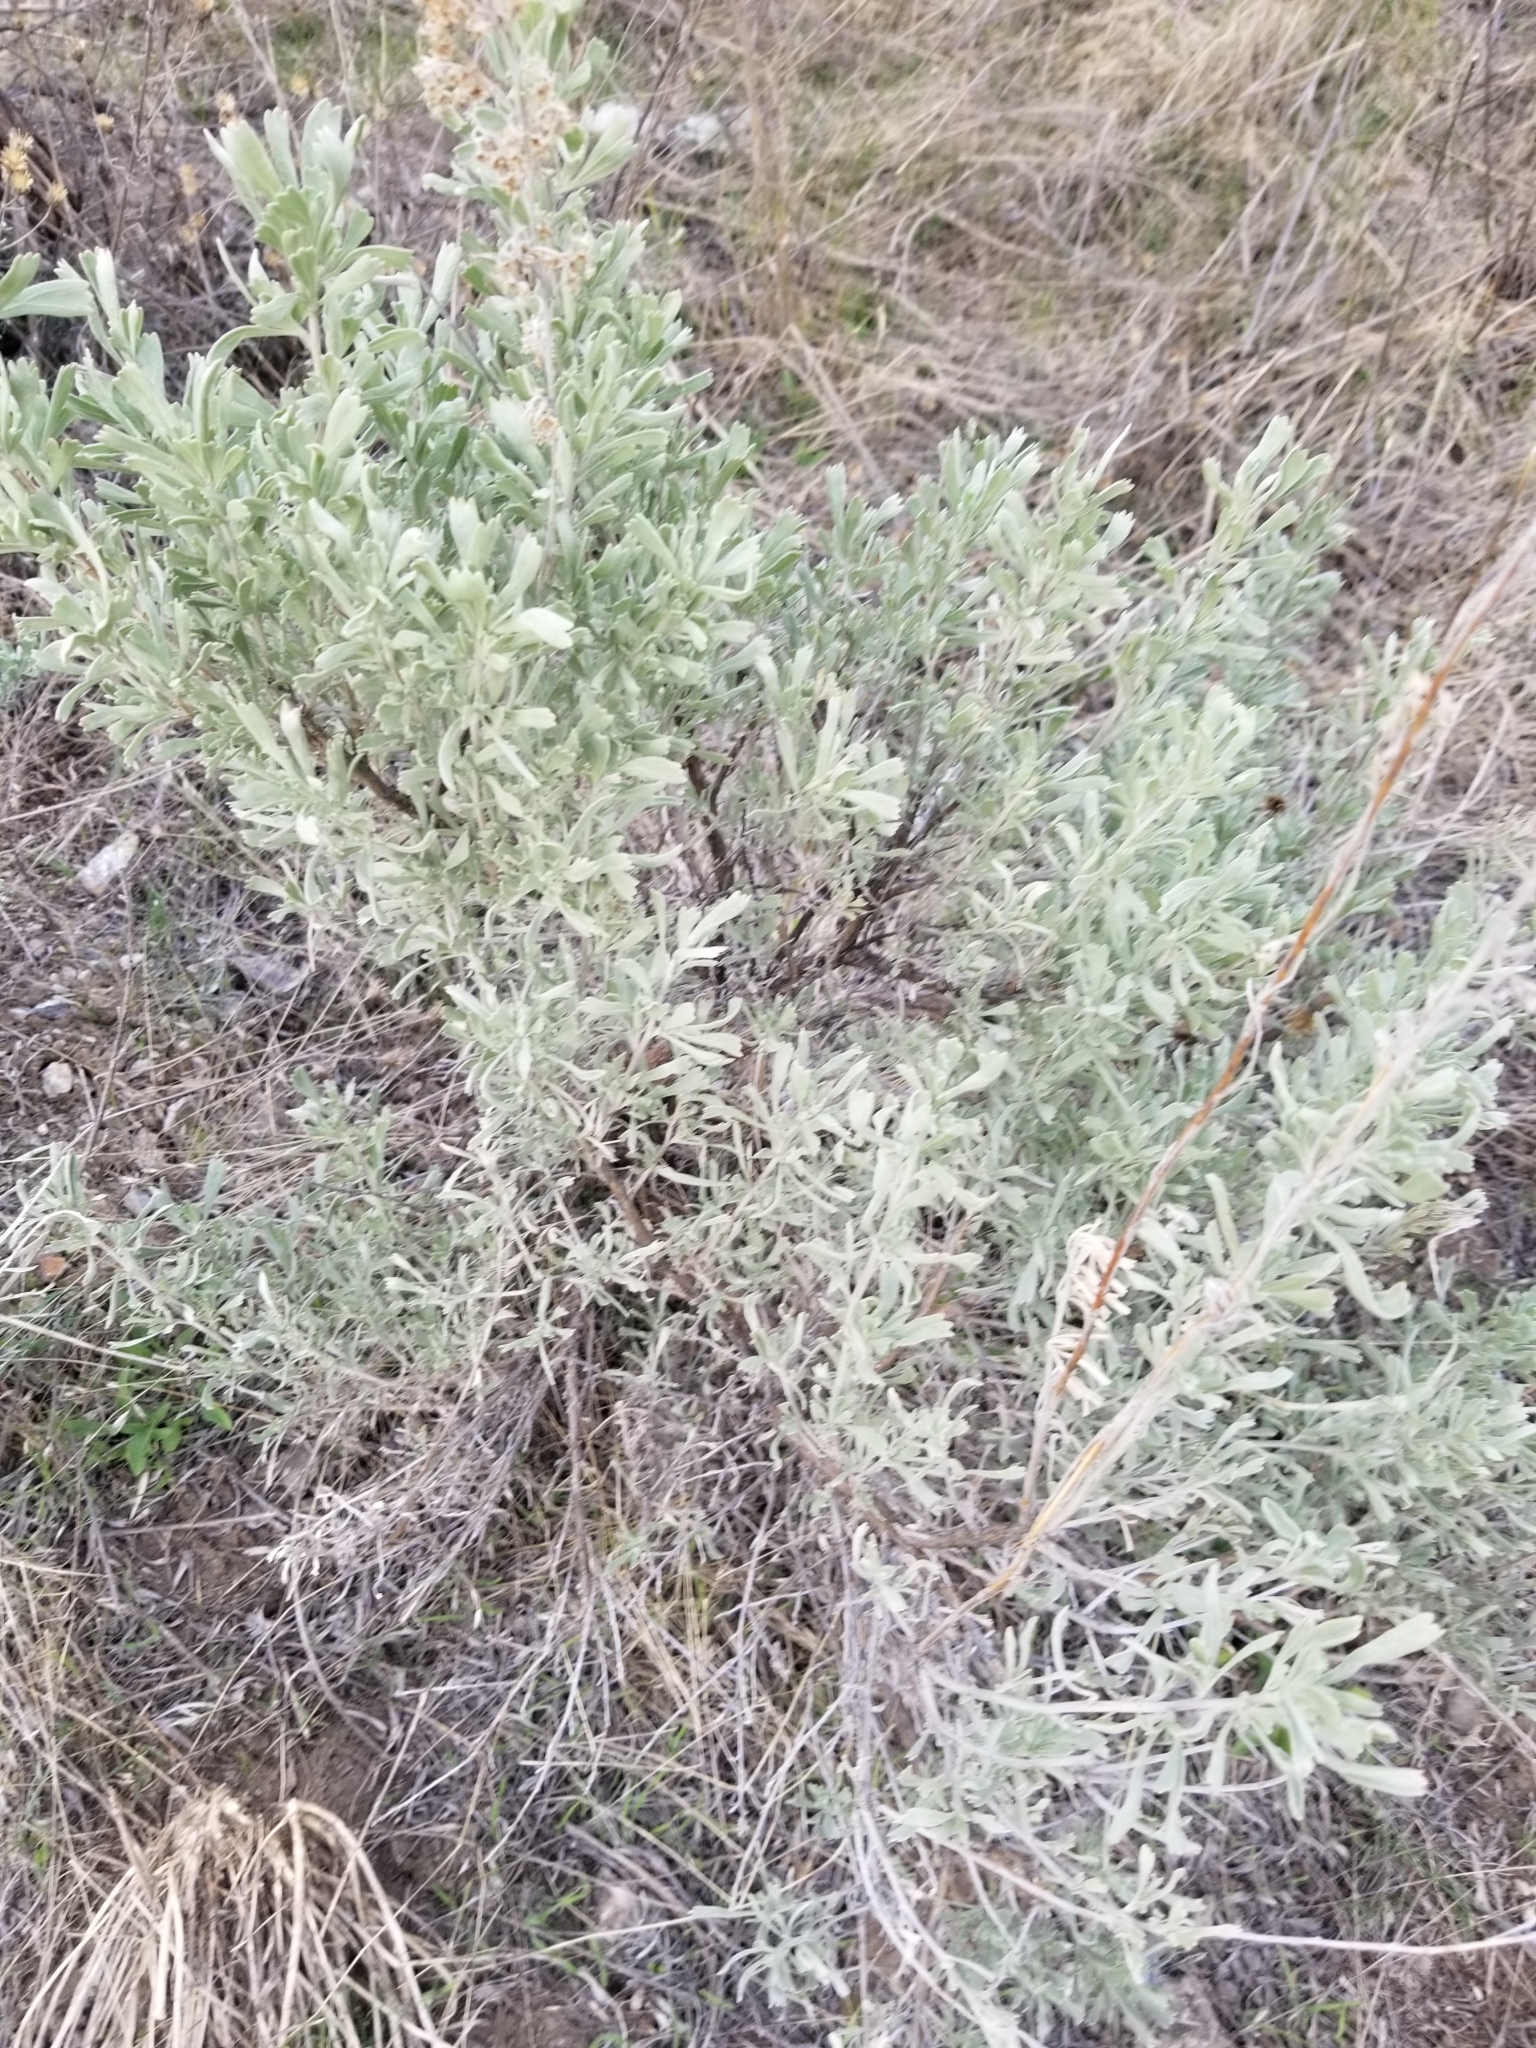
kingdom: Plantae
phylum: Tracheophyta
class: Magnoliopsida
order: Asterales
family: Asteraceae
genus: Artemisia
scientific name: Artemisia tridentata
